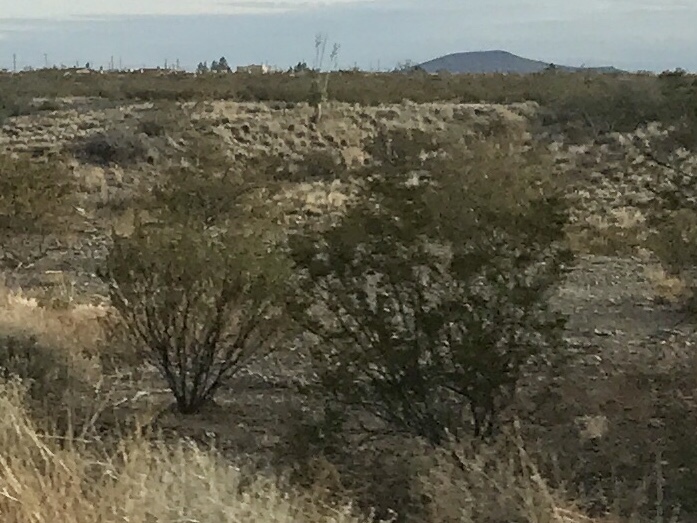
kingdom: Plantae
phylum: Tracheophyta
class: Magnoliopsida
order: Zygophyllales
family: Zygophyllaceae
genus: Larrea
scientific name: Larrea tridentata
